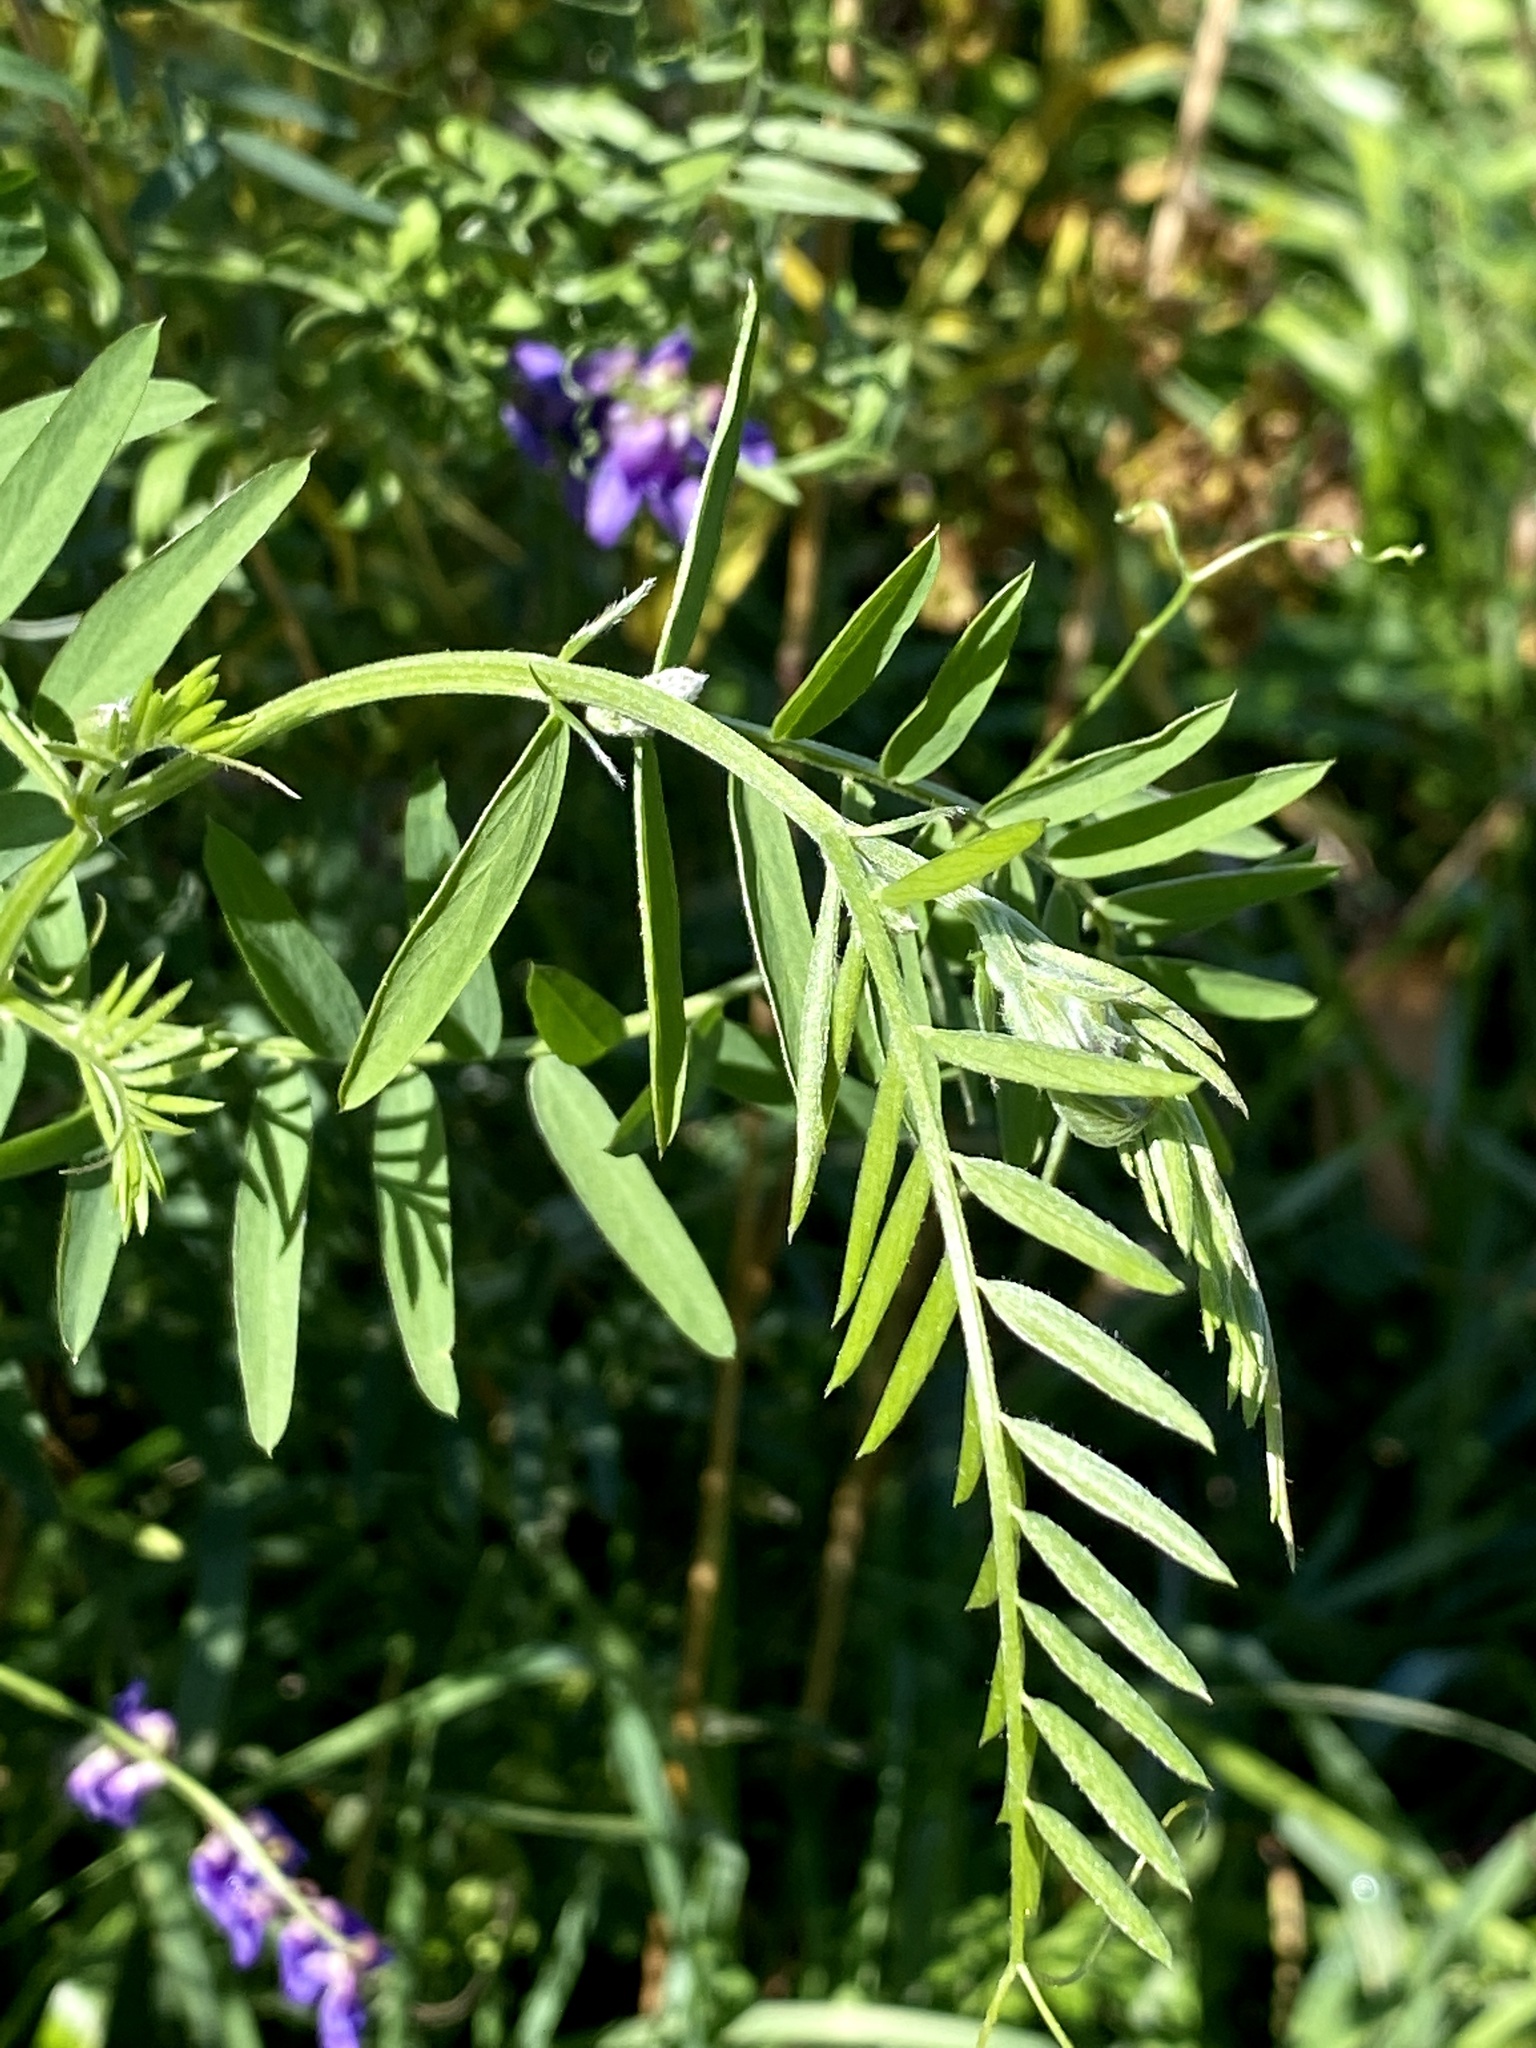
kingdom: Plantae
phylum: Tracheophyta
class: Magnoliopsida
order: Fabales
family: Fabaceae
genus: Vicia
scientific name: Vicia cracca
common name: Bird vetch
